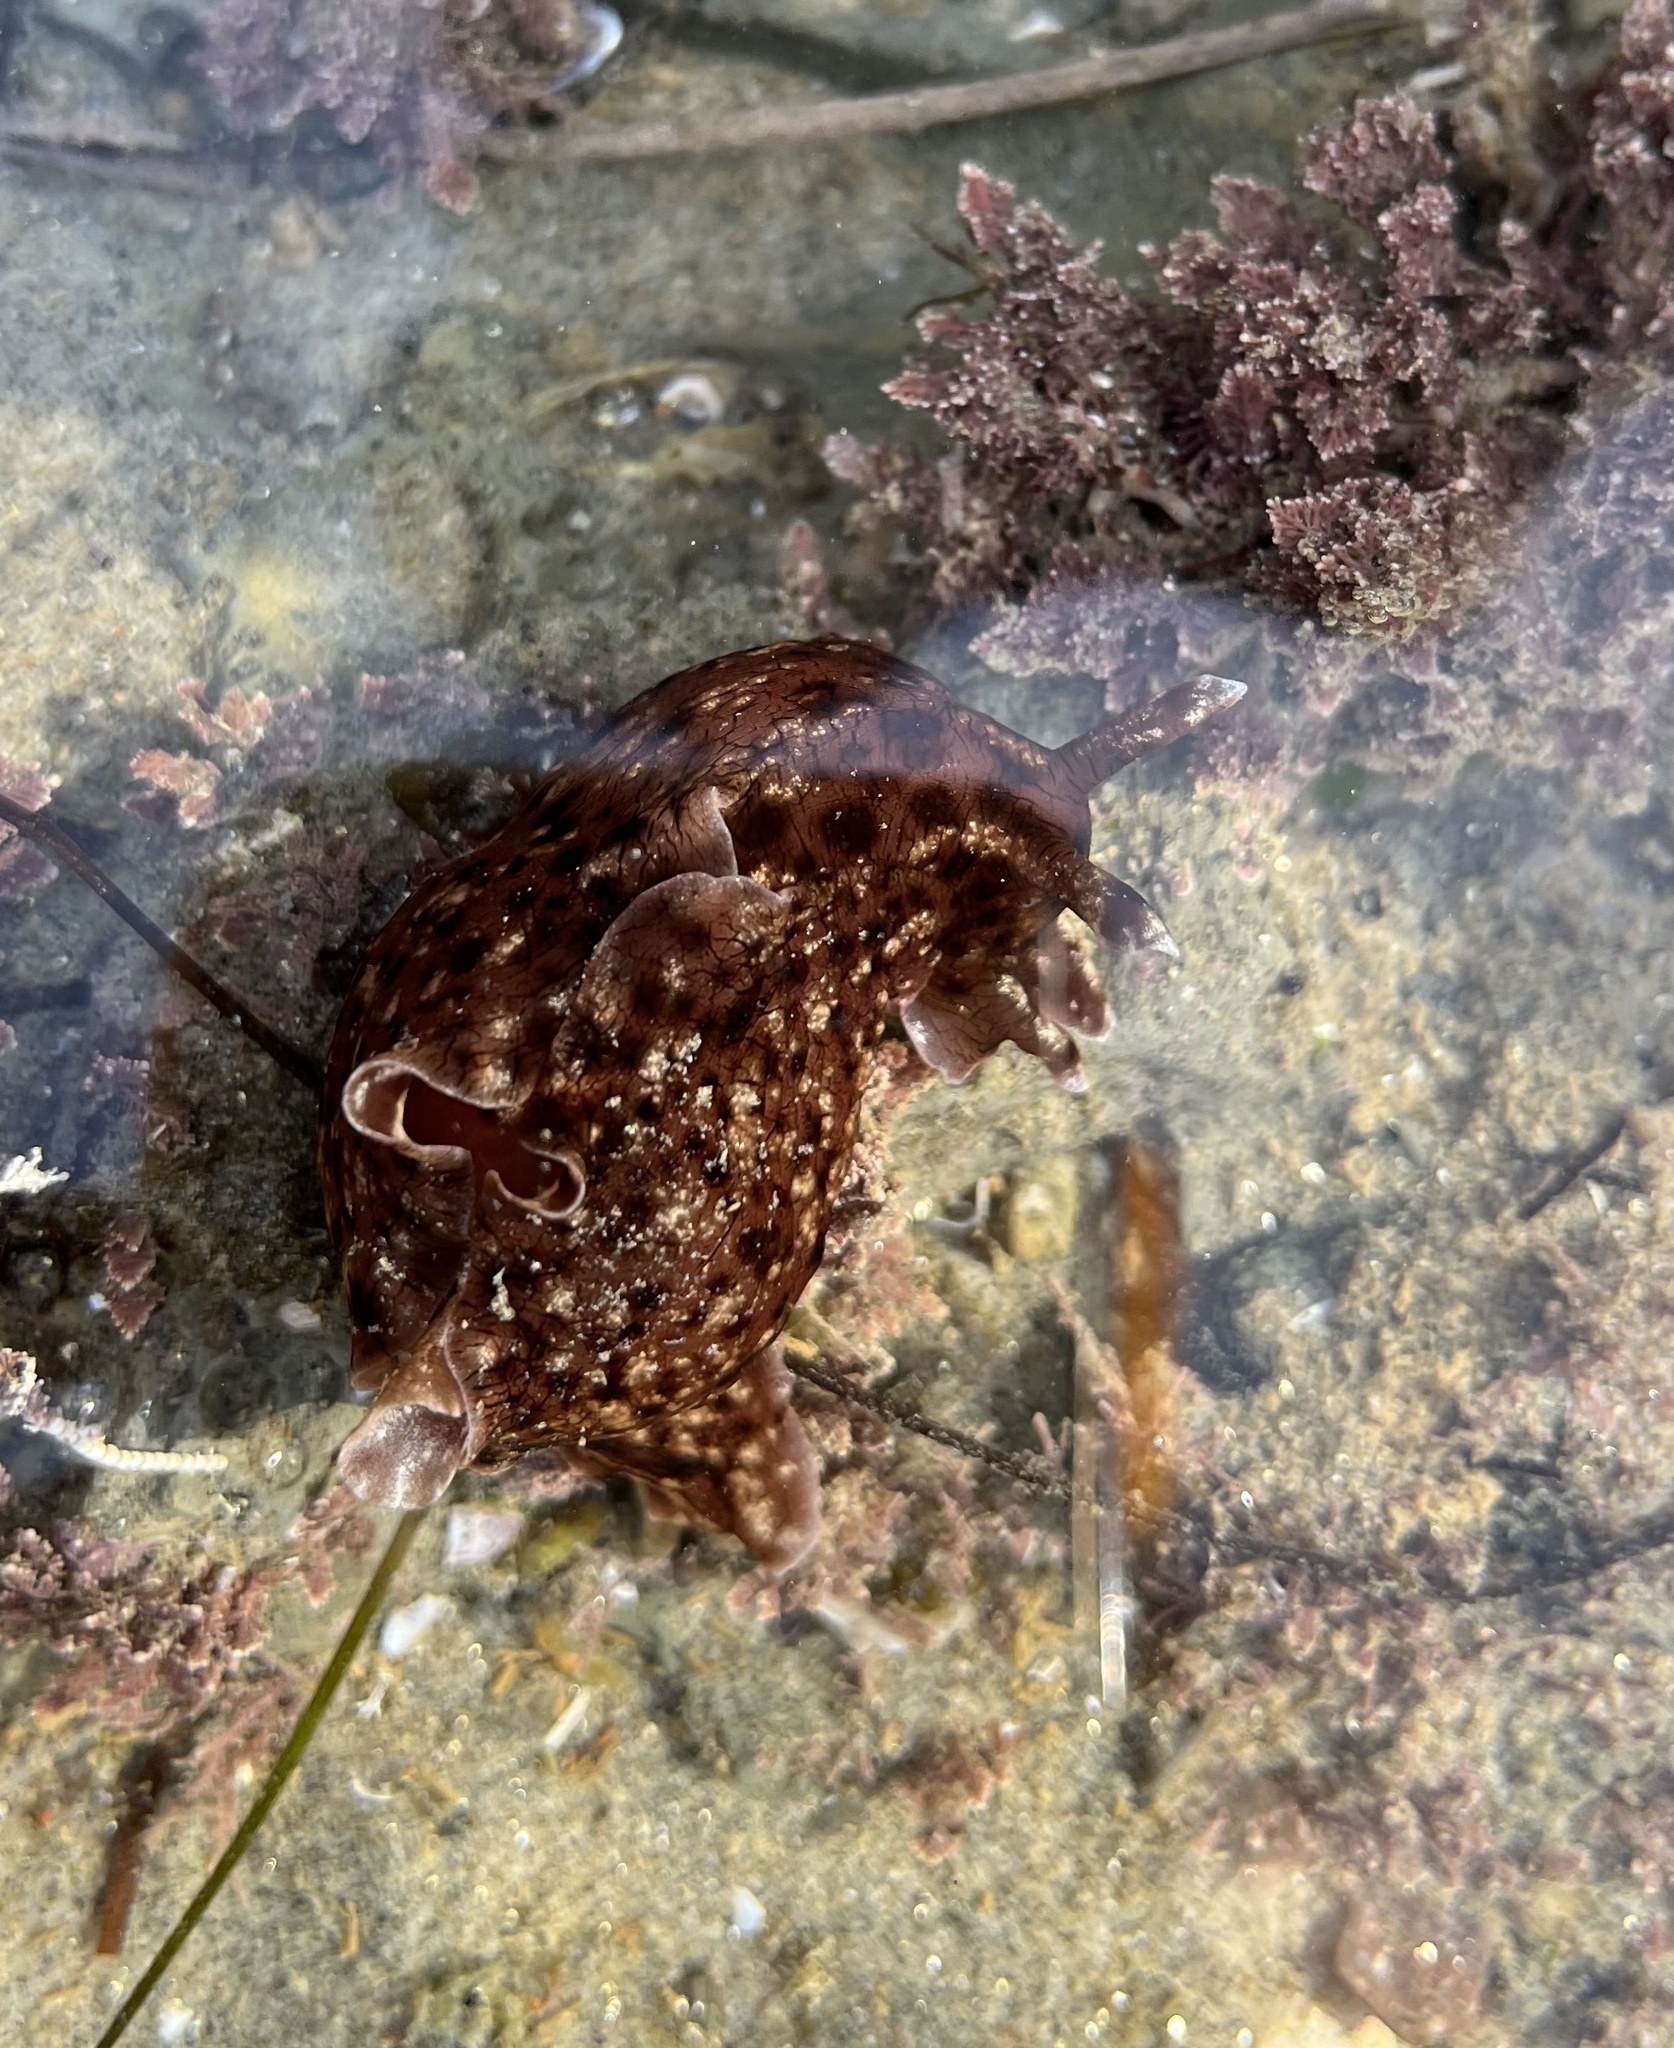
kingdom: Animalia
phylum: Mollusca
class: Gastropoda
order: Aplysiida
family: Aplysiidae
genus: Aplysia
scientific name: Aplysia californica
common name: California seahare
